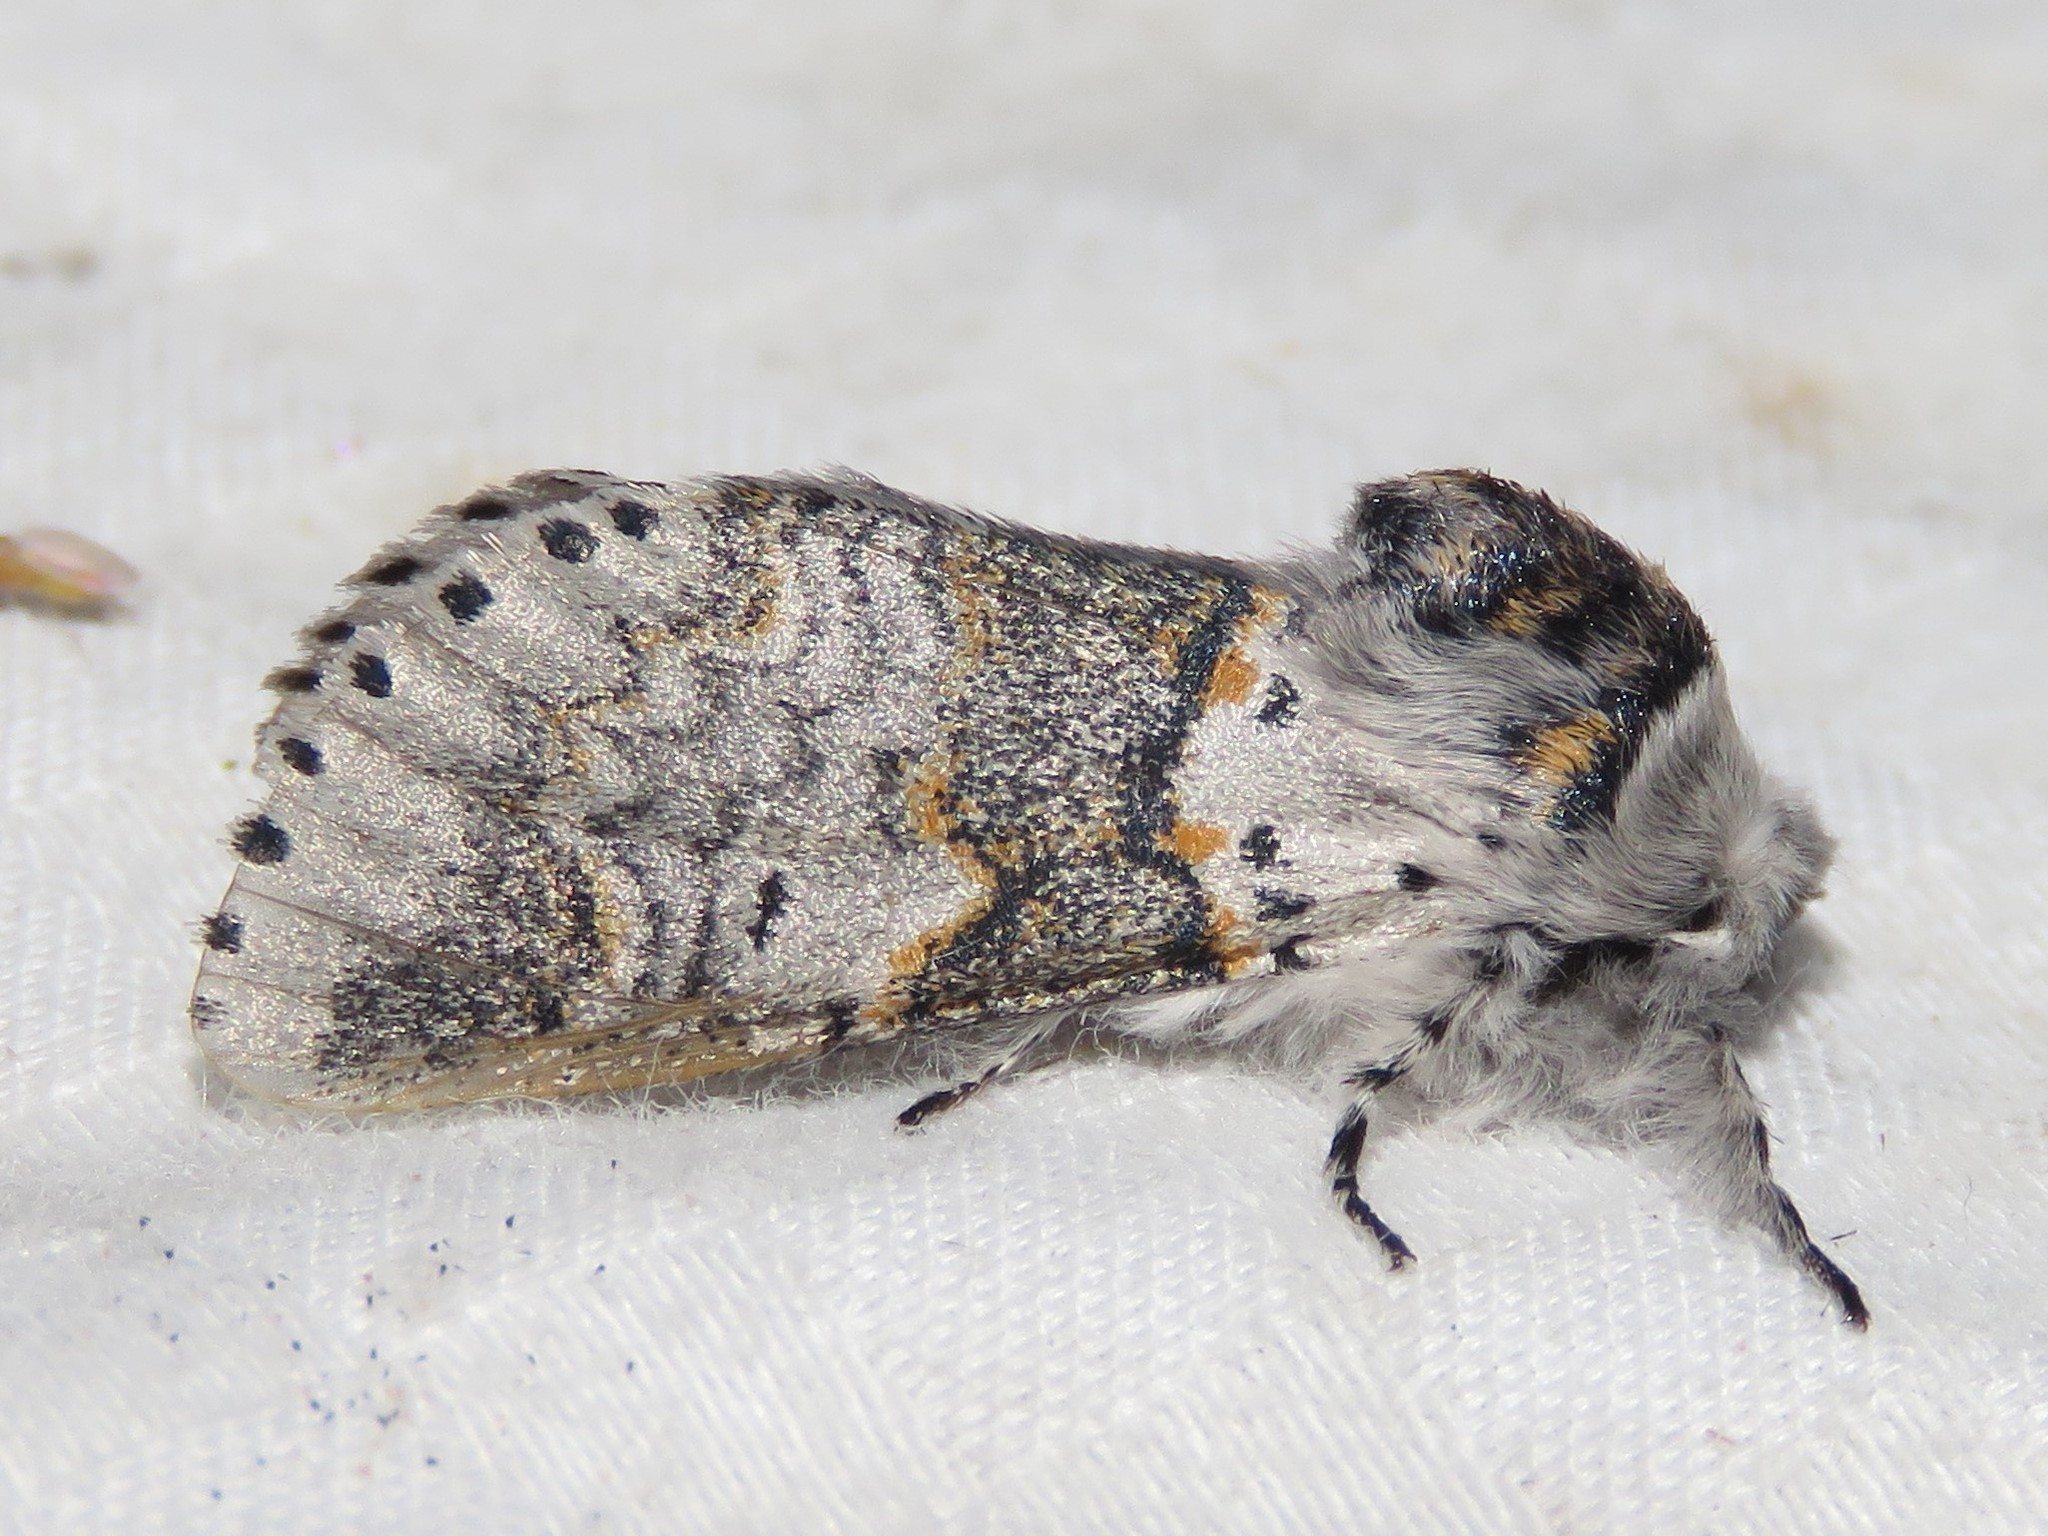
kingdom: Animalia
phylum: Arthropoda
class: Insecta
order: Lepidoptera
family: Notodontidae
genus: Furcula
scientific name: Furcula occidentalis
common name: Western furcula moth
